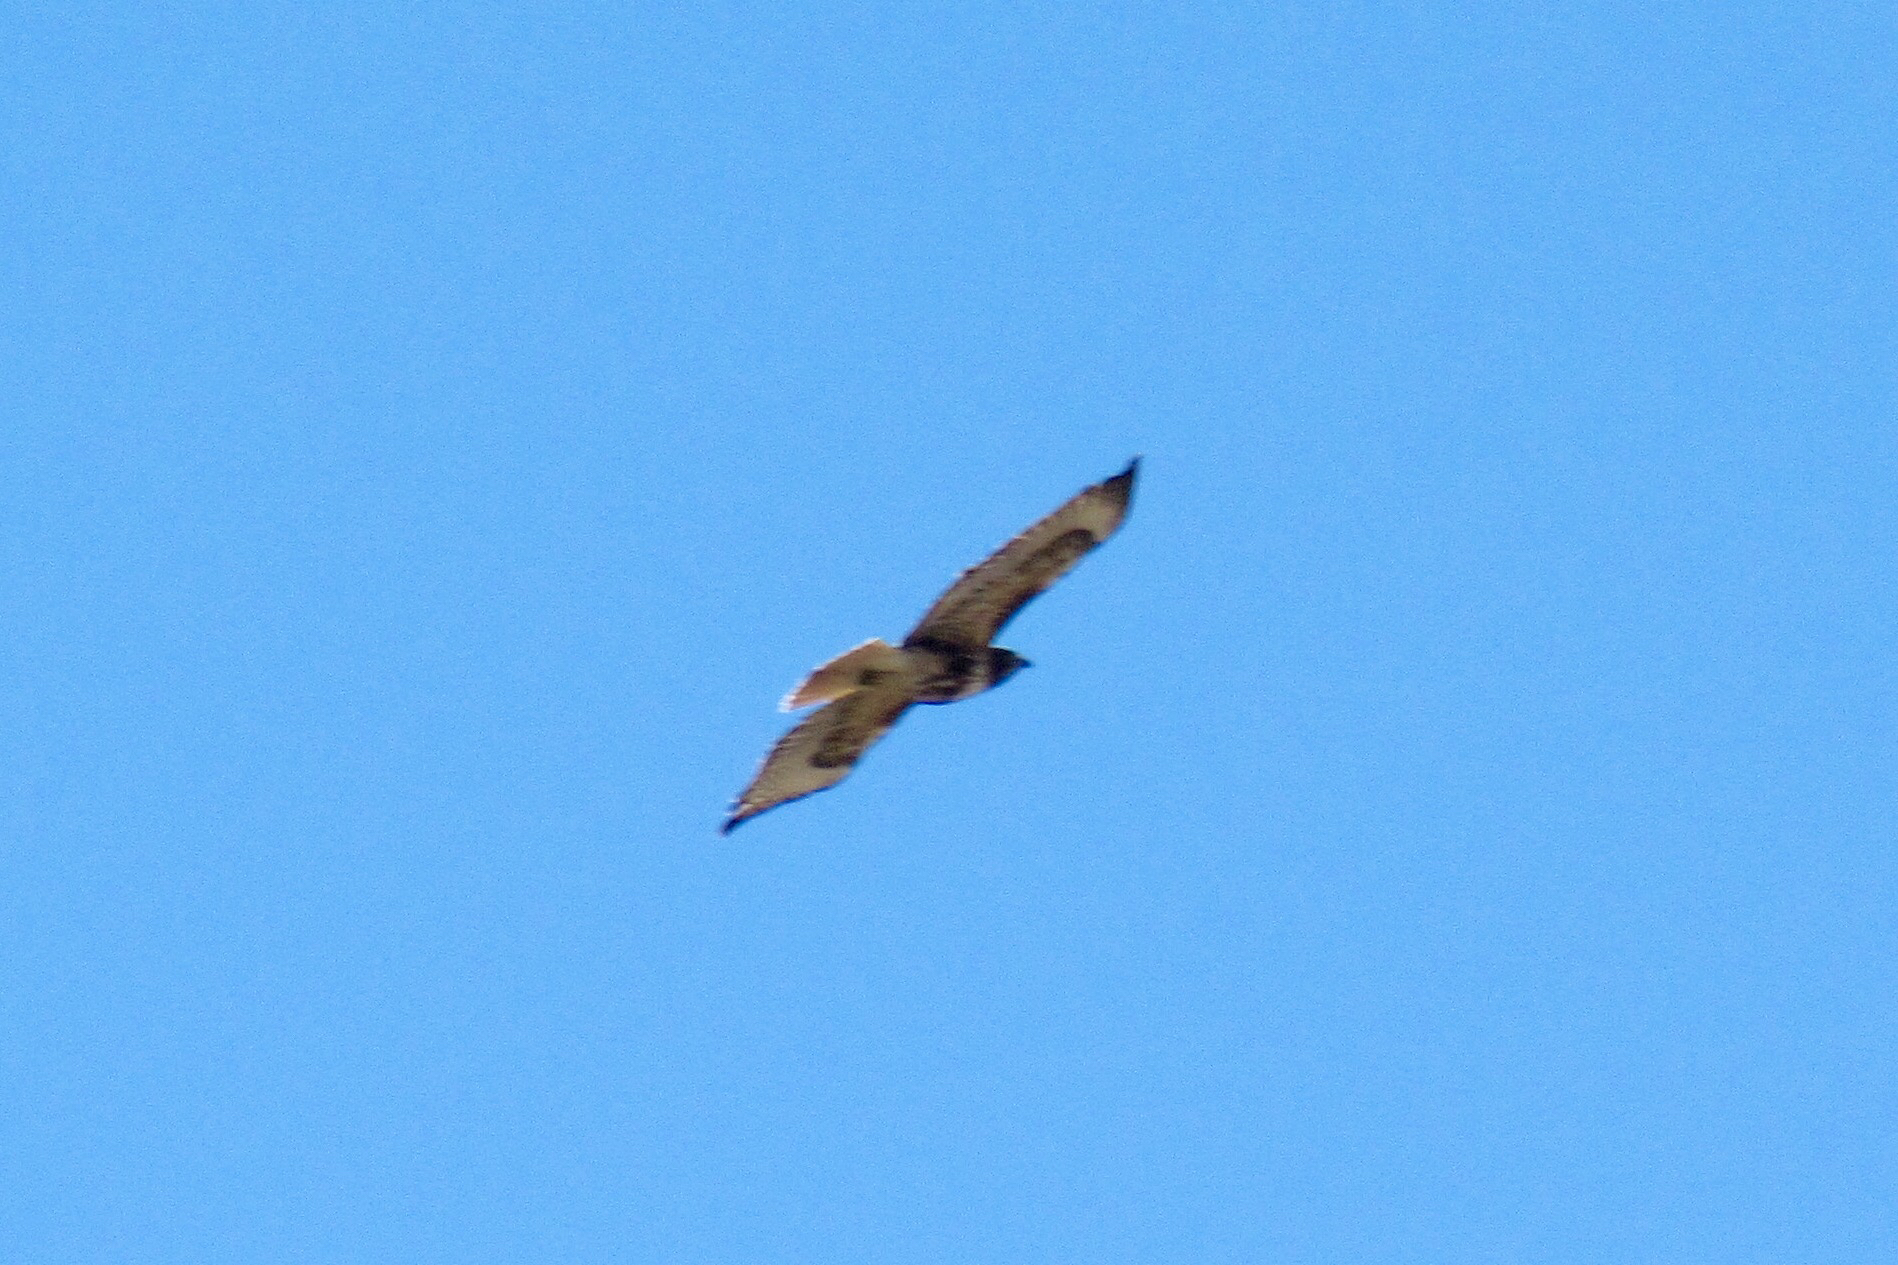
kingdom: Animalia
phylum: Chordata
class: Aves
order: Accipitriformes
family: Accipitridae
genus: Buteo
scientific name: Buteo jamaicensis
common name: Red-tailed hawk
